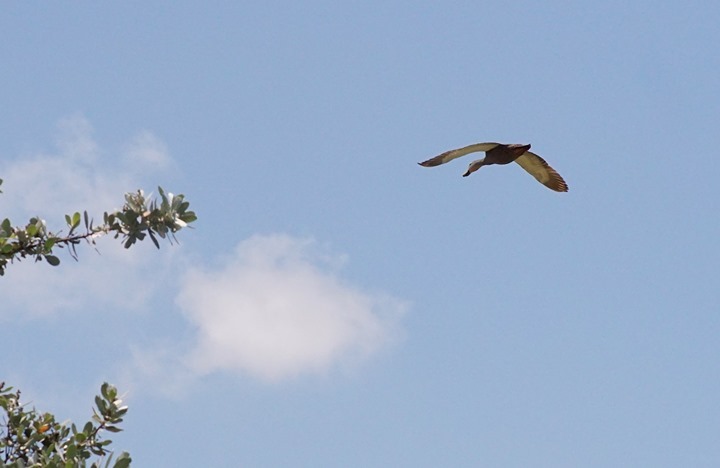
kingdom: Animalia
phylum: Chordata
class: Aves
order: Anseriformes
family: Anatidae
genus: Anas
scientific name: Anas fulvigula
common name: Mottled duck
